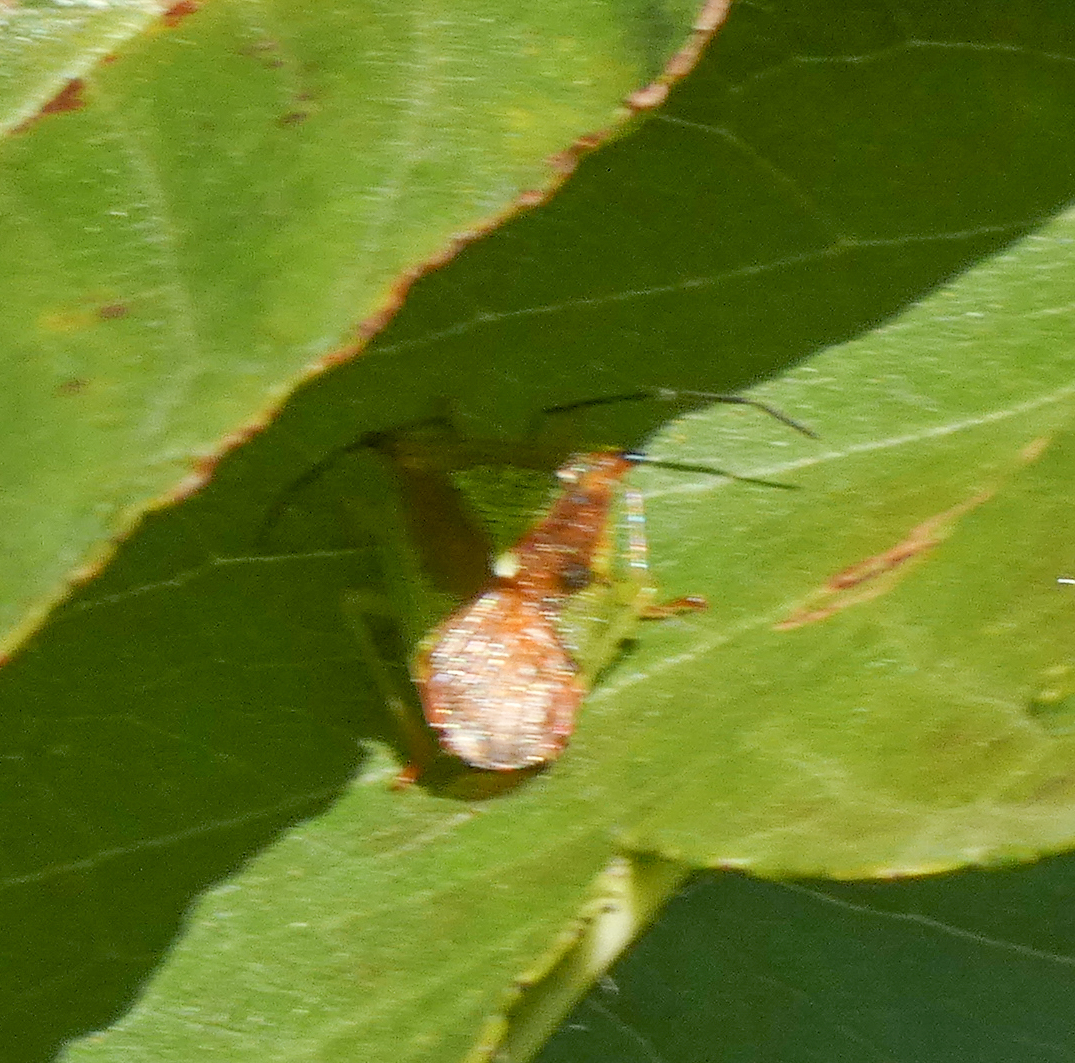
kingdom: Animalia
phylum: Arthropoda
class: Insecta
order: Hemiptera
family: Acanthosomatidae
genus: Acanthosoma
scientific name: Acanthosoma haemorrhoidale
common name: Hawthorn shieldbug
